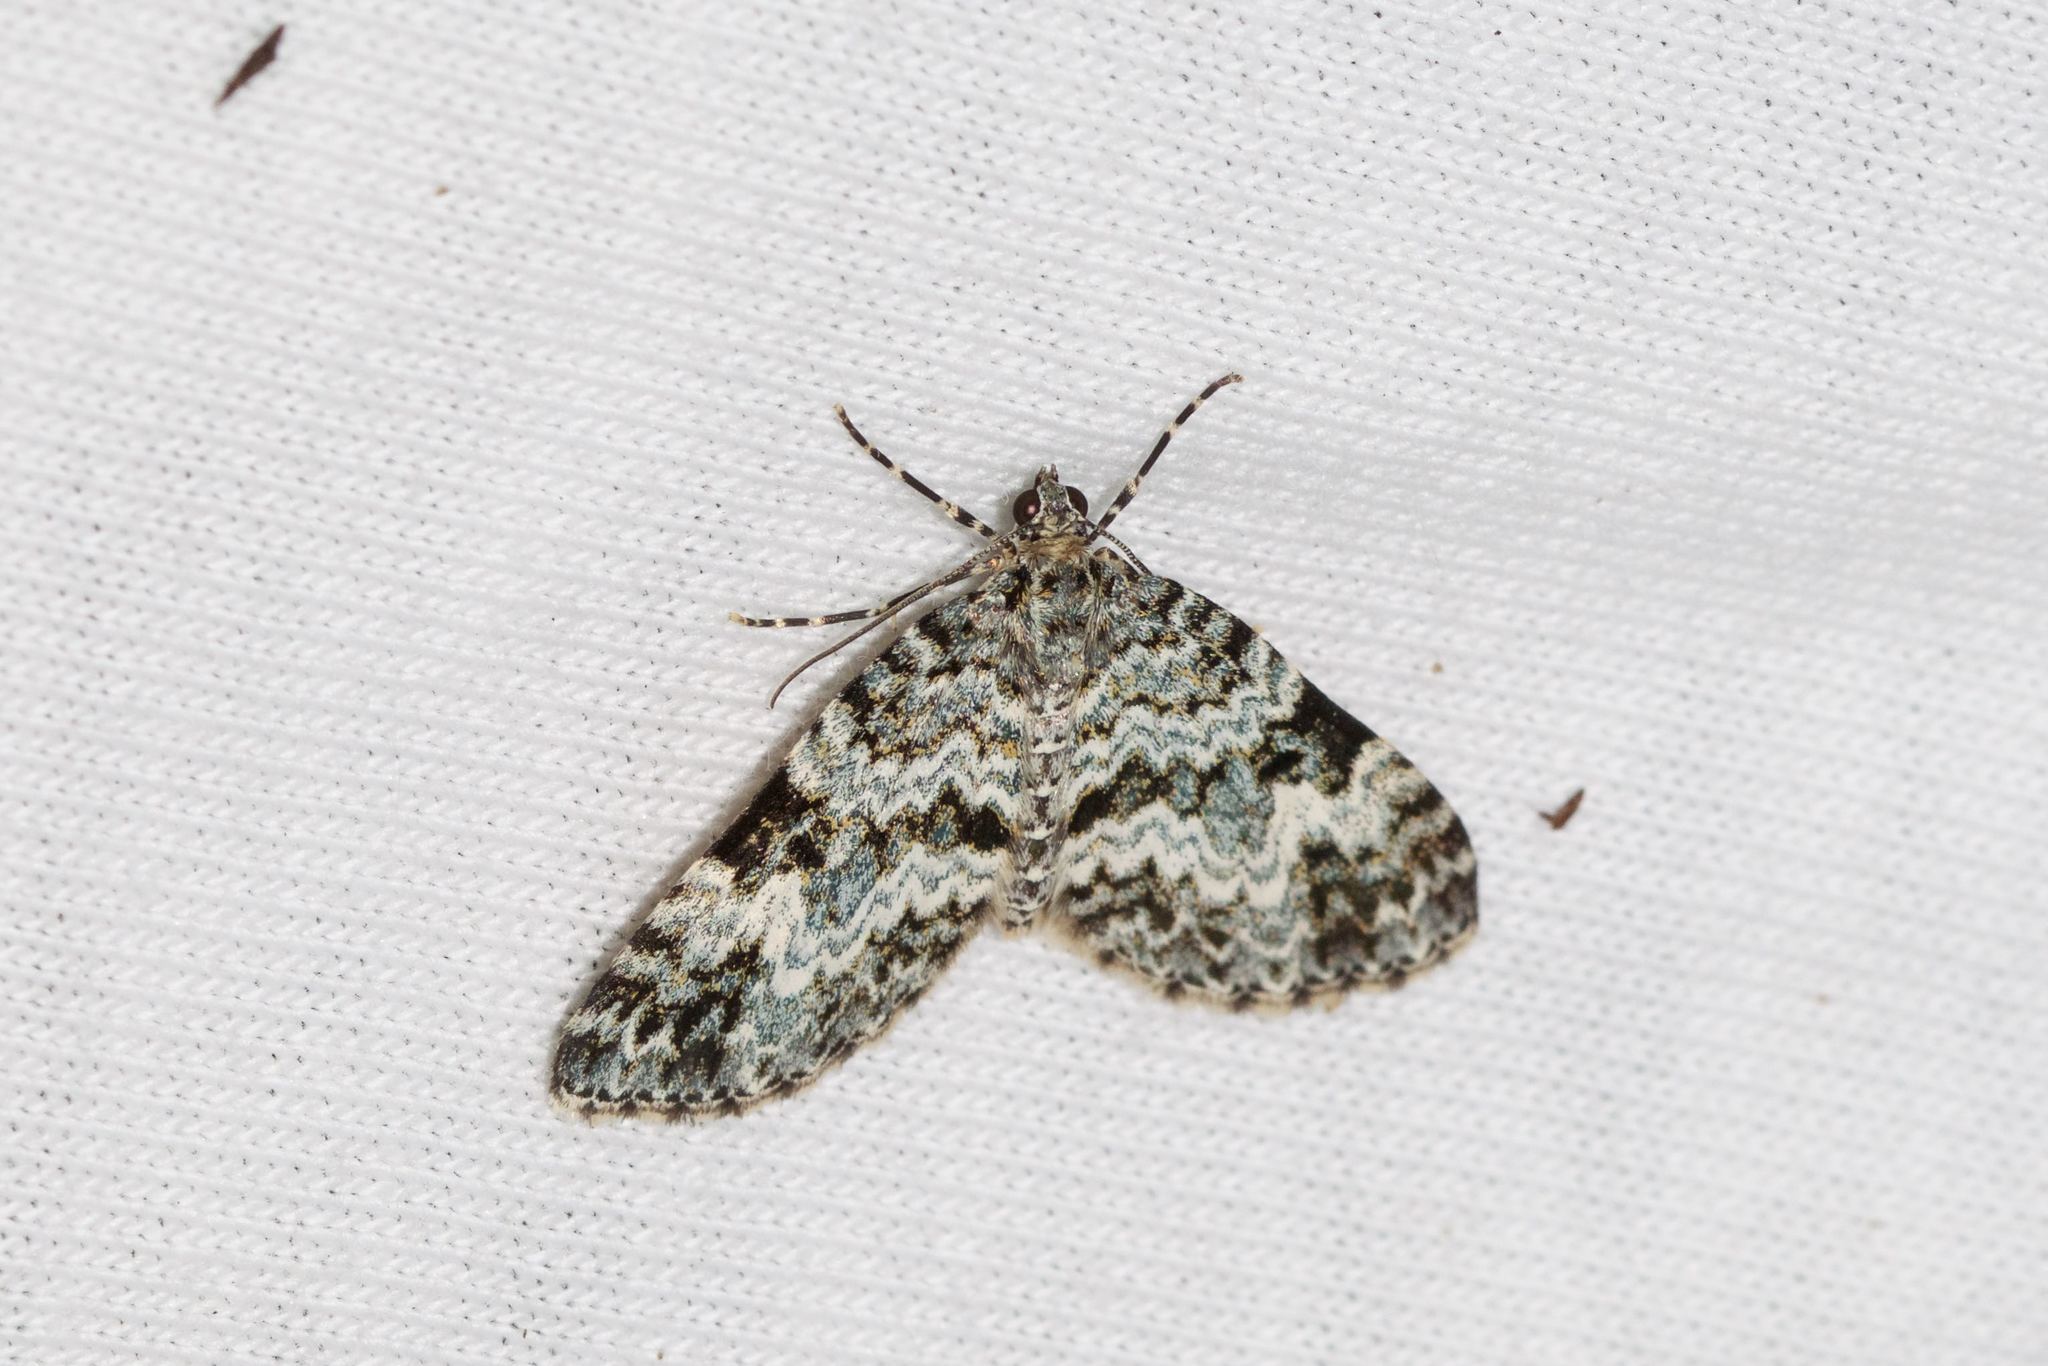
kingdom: Animalia
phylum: Arthropoda
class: Insecta
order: Lepidoptera
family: Geometridae
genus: Spargania
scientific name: Spargania magnoliata
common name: Double-banded carpet
